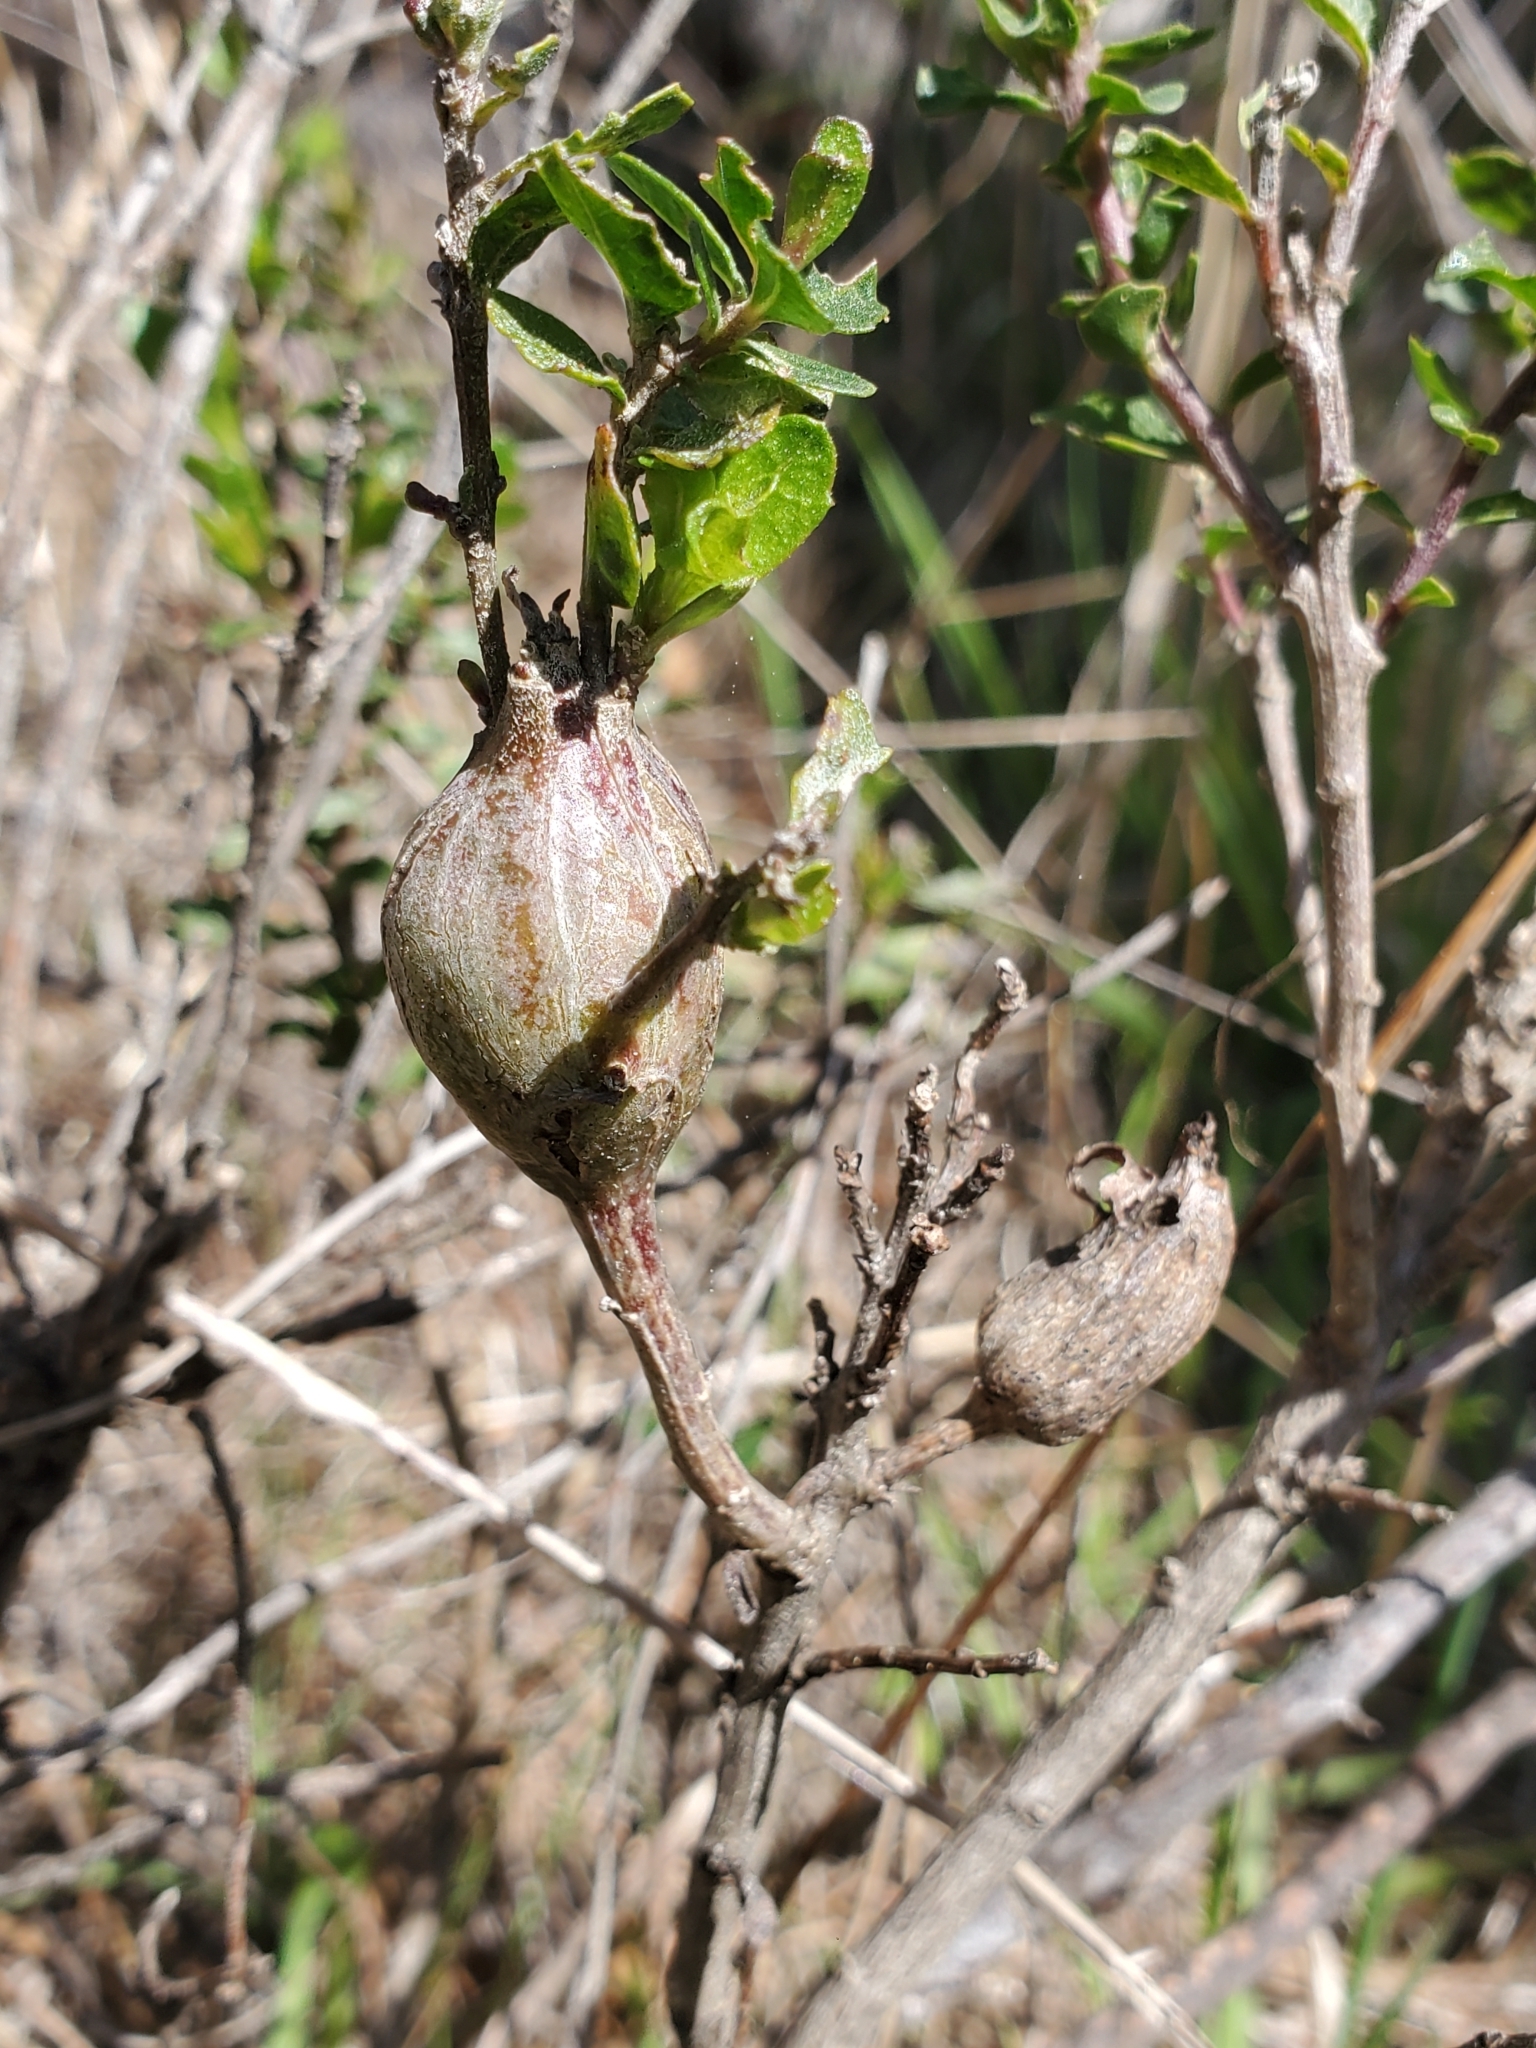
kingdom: Animalia
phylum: Arthropoda
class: Insecta
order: Lepidoptera
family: Gelechiidae
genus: Gnorimoschema
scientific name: Gnorimoschema baccharisella
